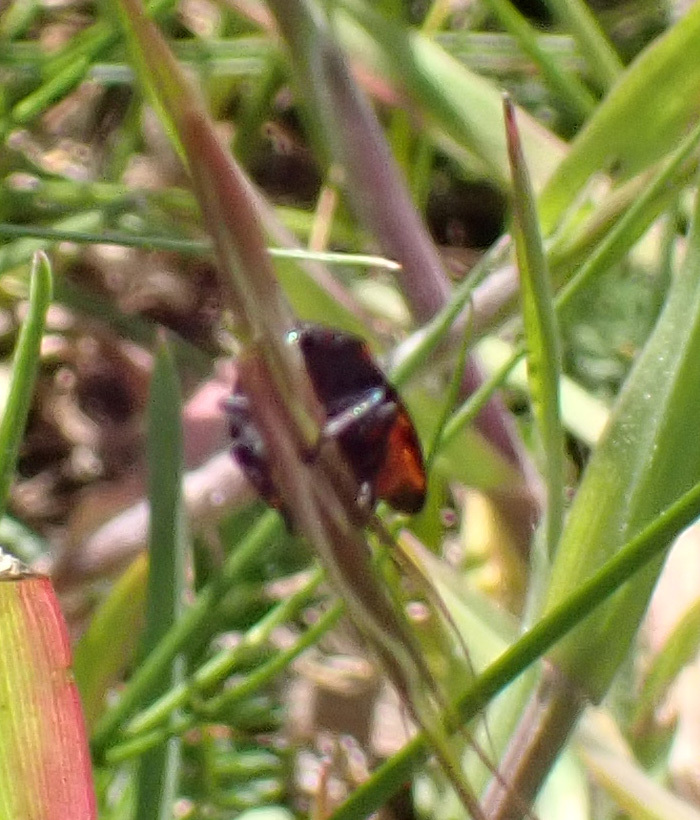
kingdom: Animalia
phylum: Arthropoda
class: Insecta
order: Hemiptera
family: Cercopidae
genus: Cercopis
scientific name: Cercopis arcuata
